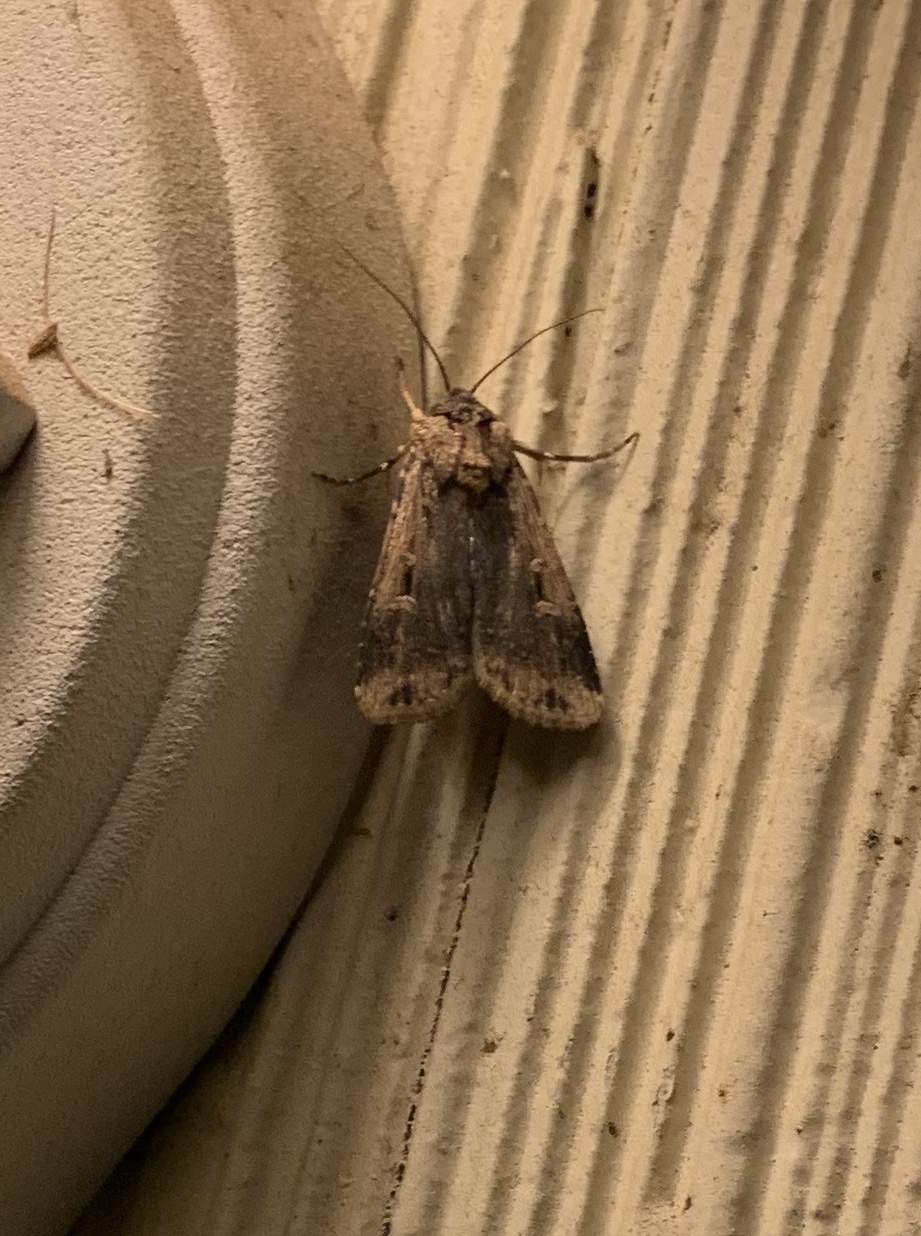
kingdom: Animalia
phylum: Arthropoda
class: Insecta
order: Lepidoptera
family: Noctuidae
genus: Feltia
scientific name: Feltia subterranea
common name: Granulate cutworm
